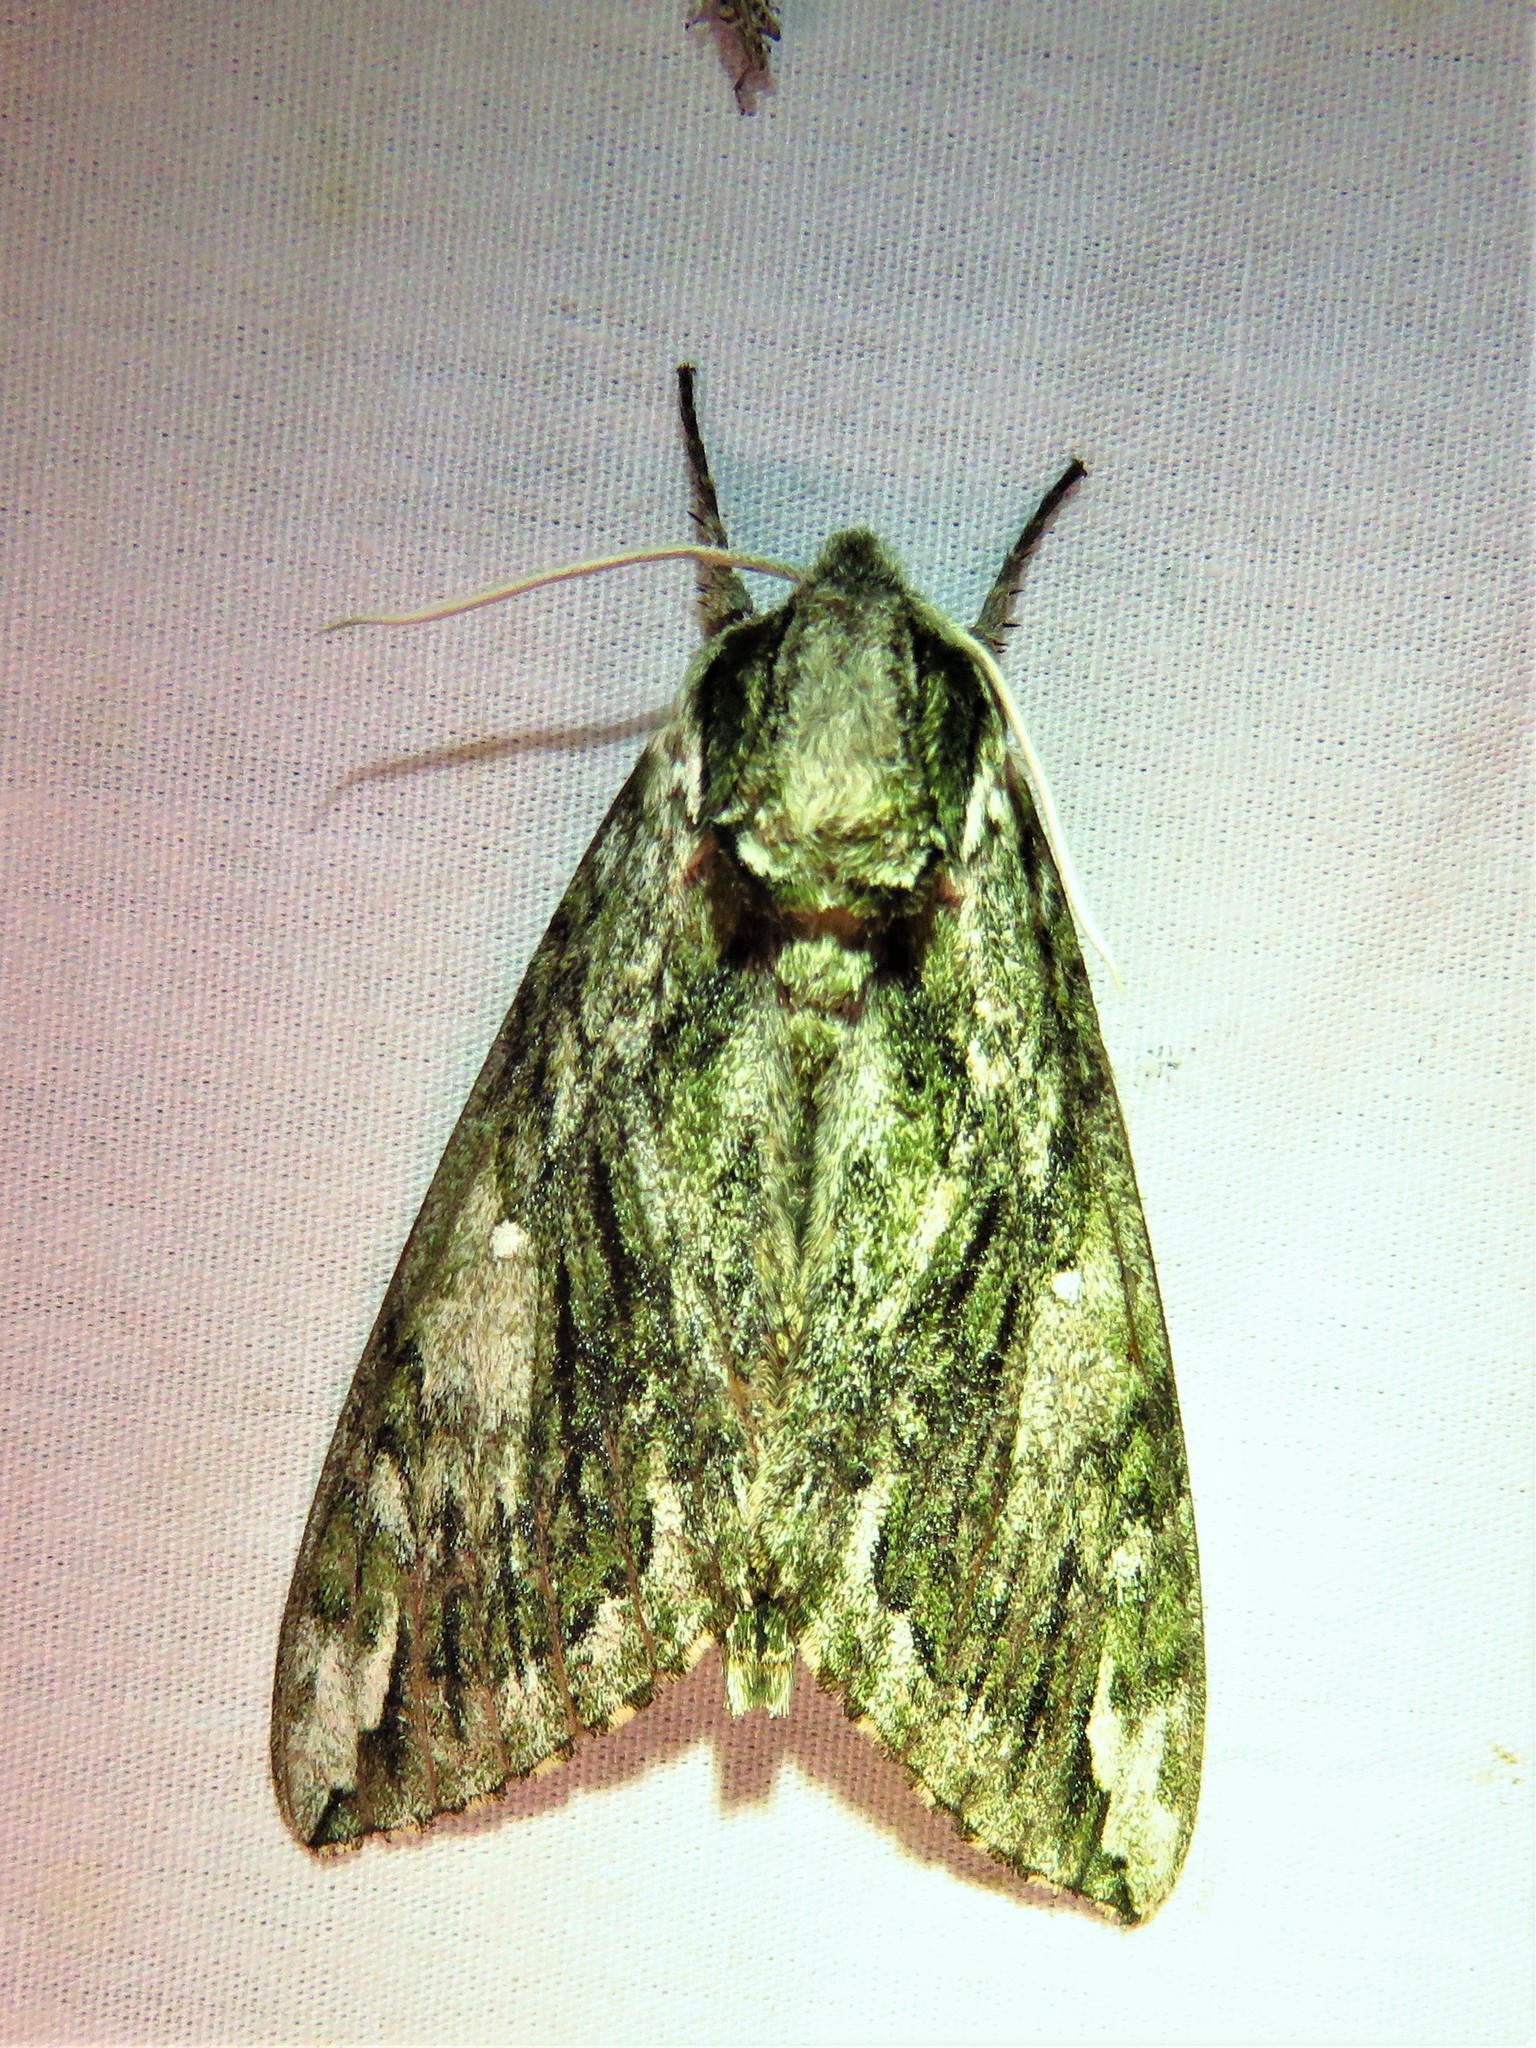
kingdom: Animalia
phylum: Arthropoda
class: Insecta
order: Lepidoptera
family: Sphingidae
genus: Ceratomia
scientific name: Ceratomia hageni
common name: Hagen's sphinx
